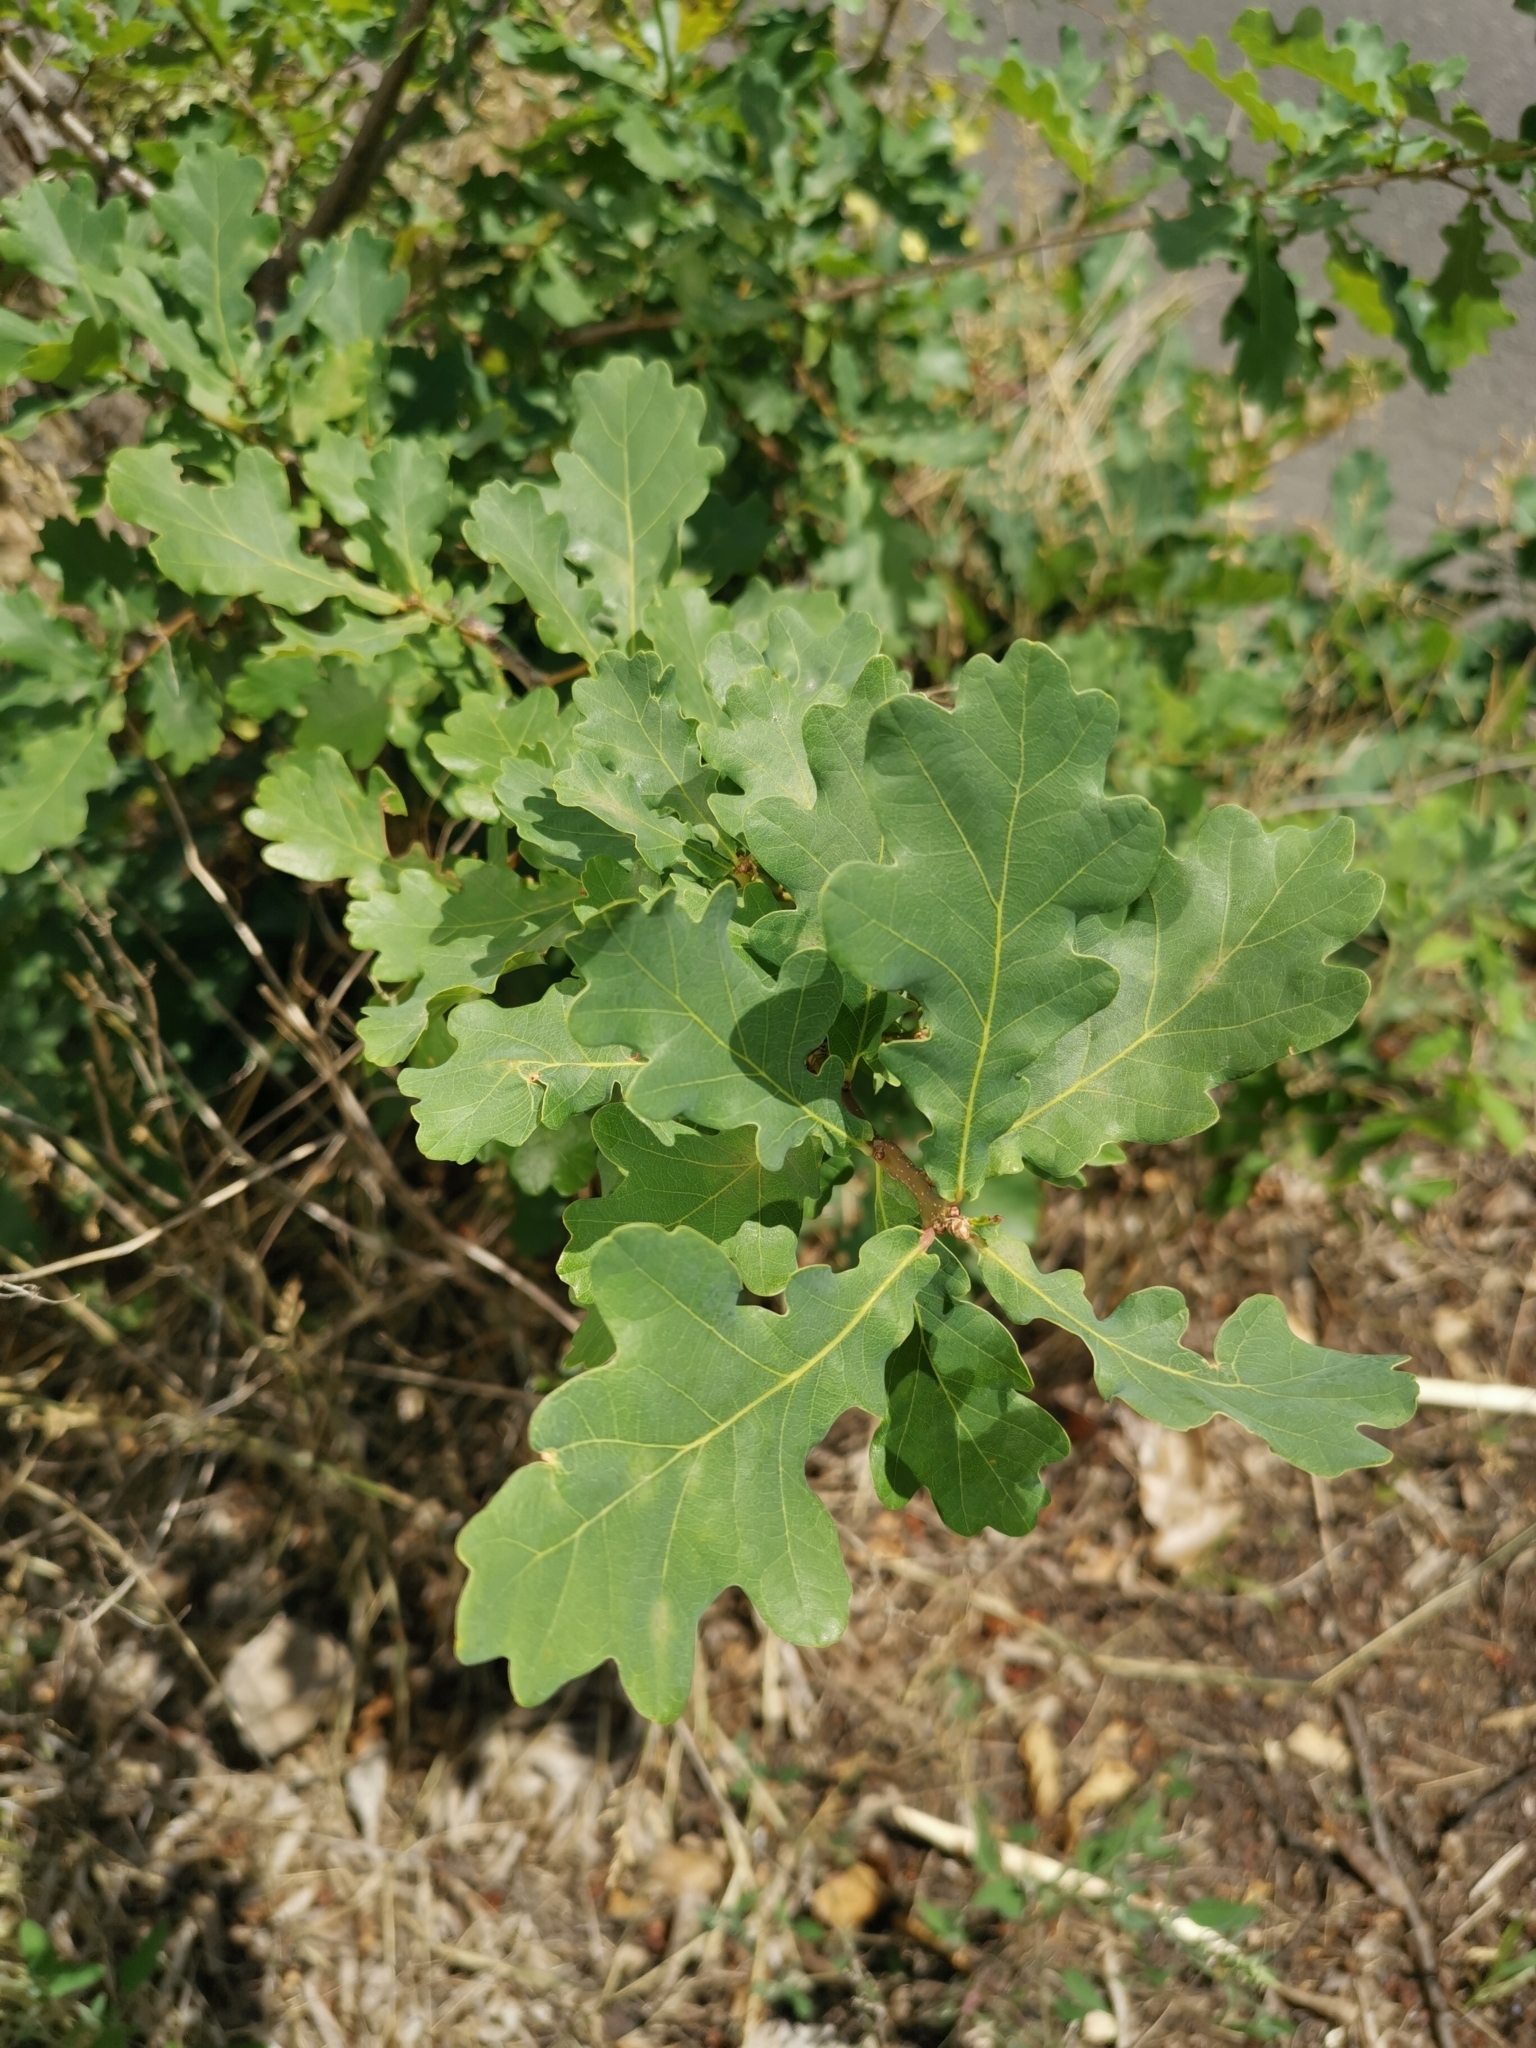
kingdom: Plantae
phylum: Tracheophyta
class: Magnoliopsida
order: Fagales
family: Fagaceae
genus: Quercus
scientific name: Quercus robur
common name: Pedunculate oak
